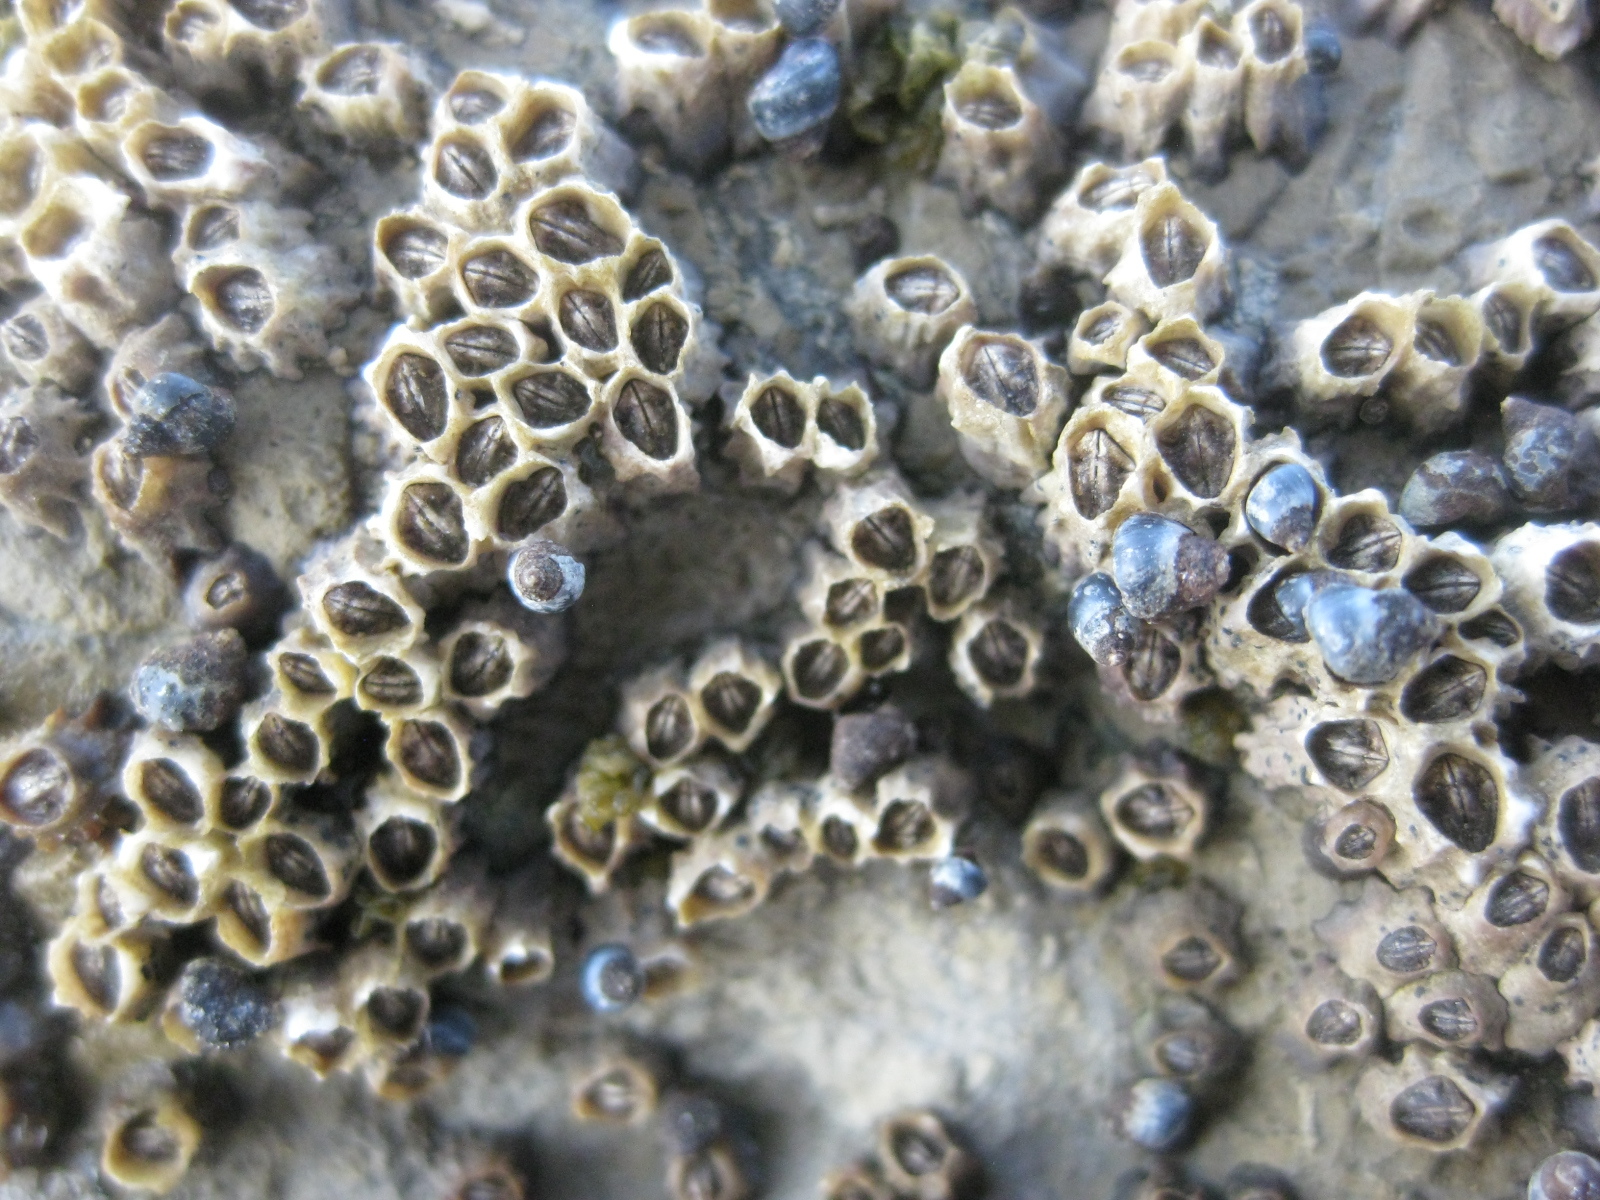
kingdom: Animalia
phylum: Arthropoda
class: Maxillopoda
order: Sessilia
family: Chthamalidae
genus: Chamaesipho
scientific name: Chamaesipho columna
